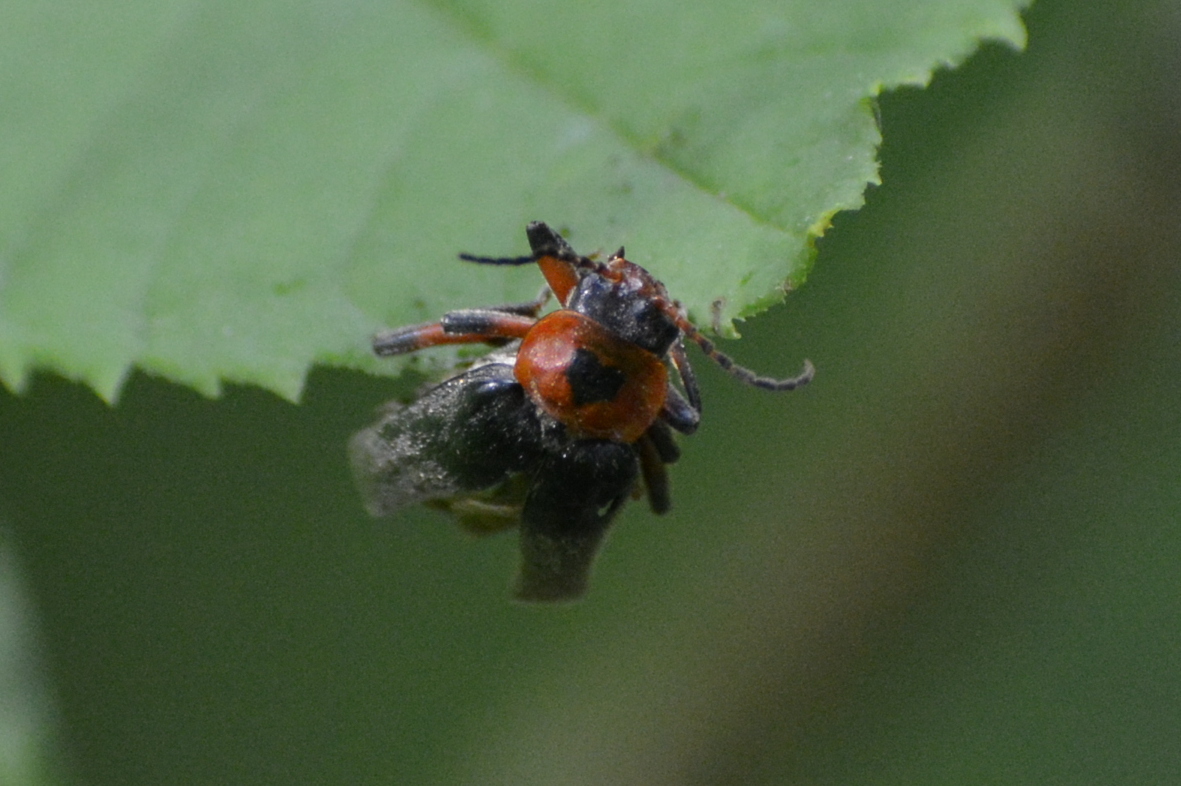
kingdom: Animalia
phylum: Arthropoda
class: Insecta
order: Coleoptera
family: Cantharidae
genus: Cantharis
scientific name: Cantharis rustica
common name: Soldier beetle
